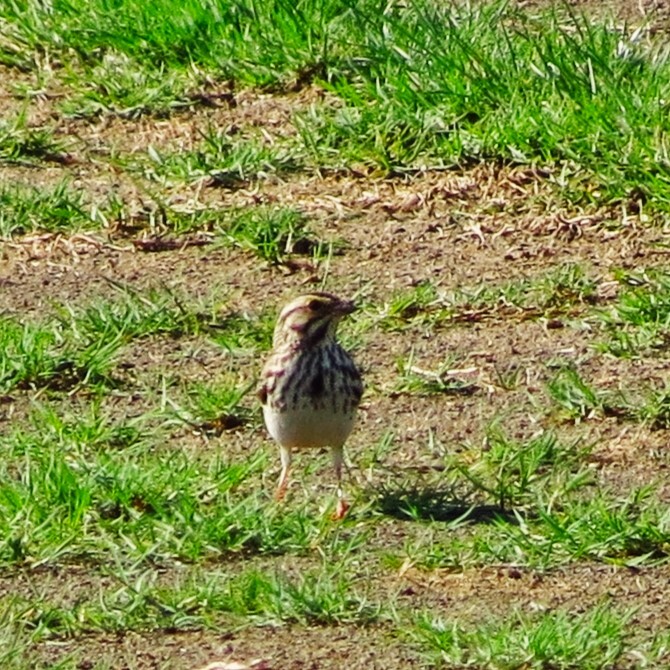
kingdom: Animalia
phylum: Chordata
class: Aves
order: Passeriformes
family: Passerellidae
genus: Passerculus
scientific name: Passerculus sandwichensis
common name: Savannah sparrow
